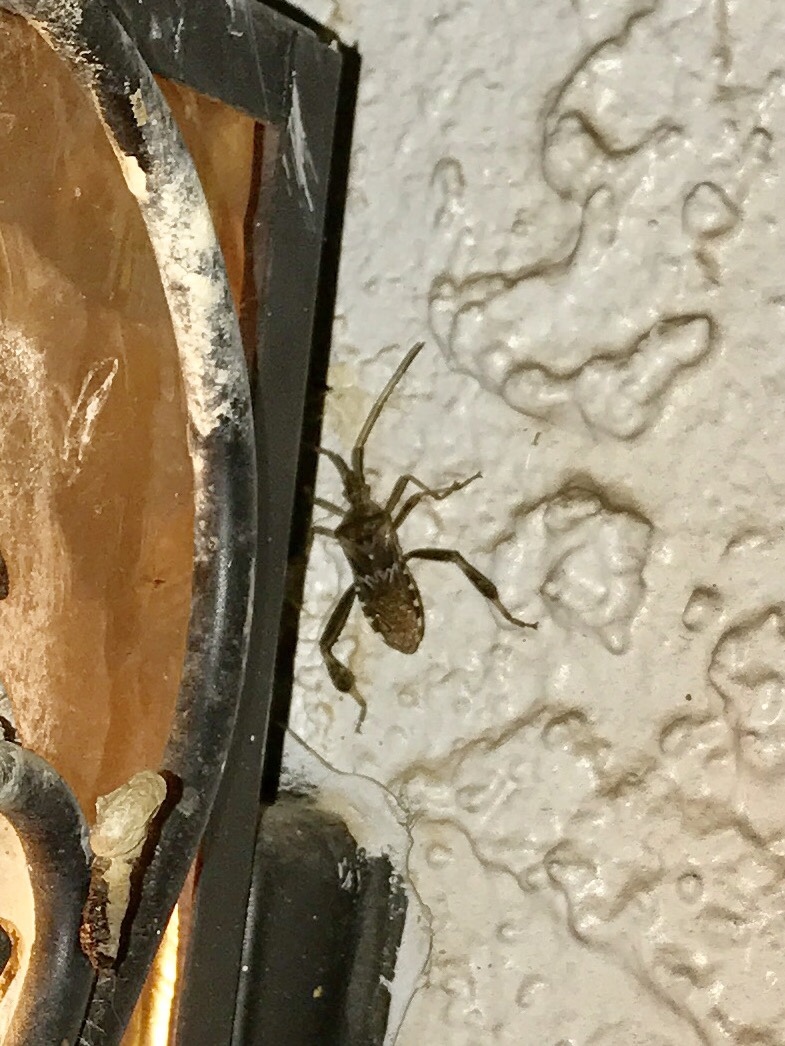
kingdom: Animalia
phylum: Arthropoda
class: Insecta
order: Hemiptera
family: Coreidae
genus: Leptoglossus
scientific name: Leptoglossus occidentalis
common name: Western conifer-seed bug
